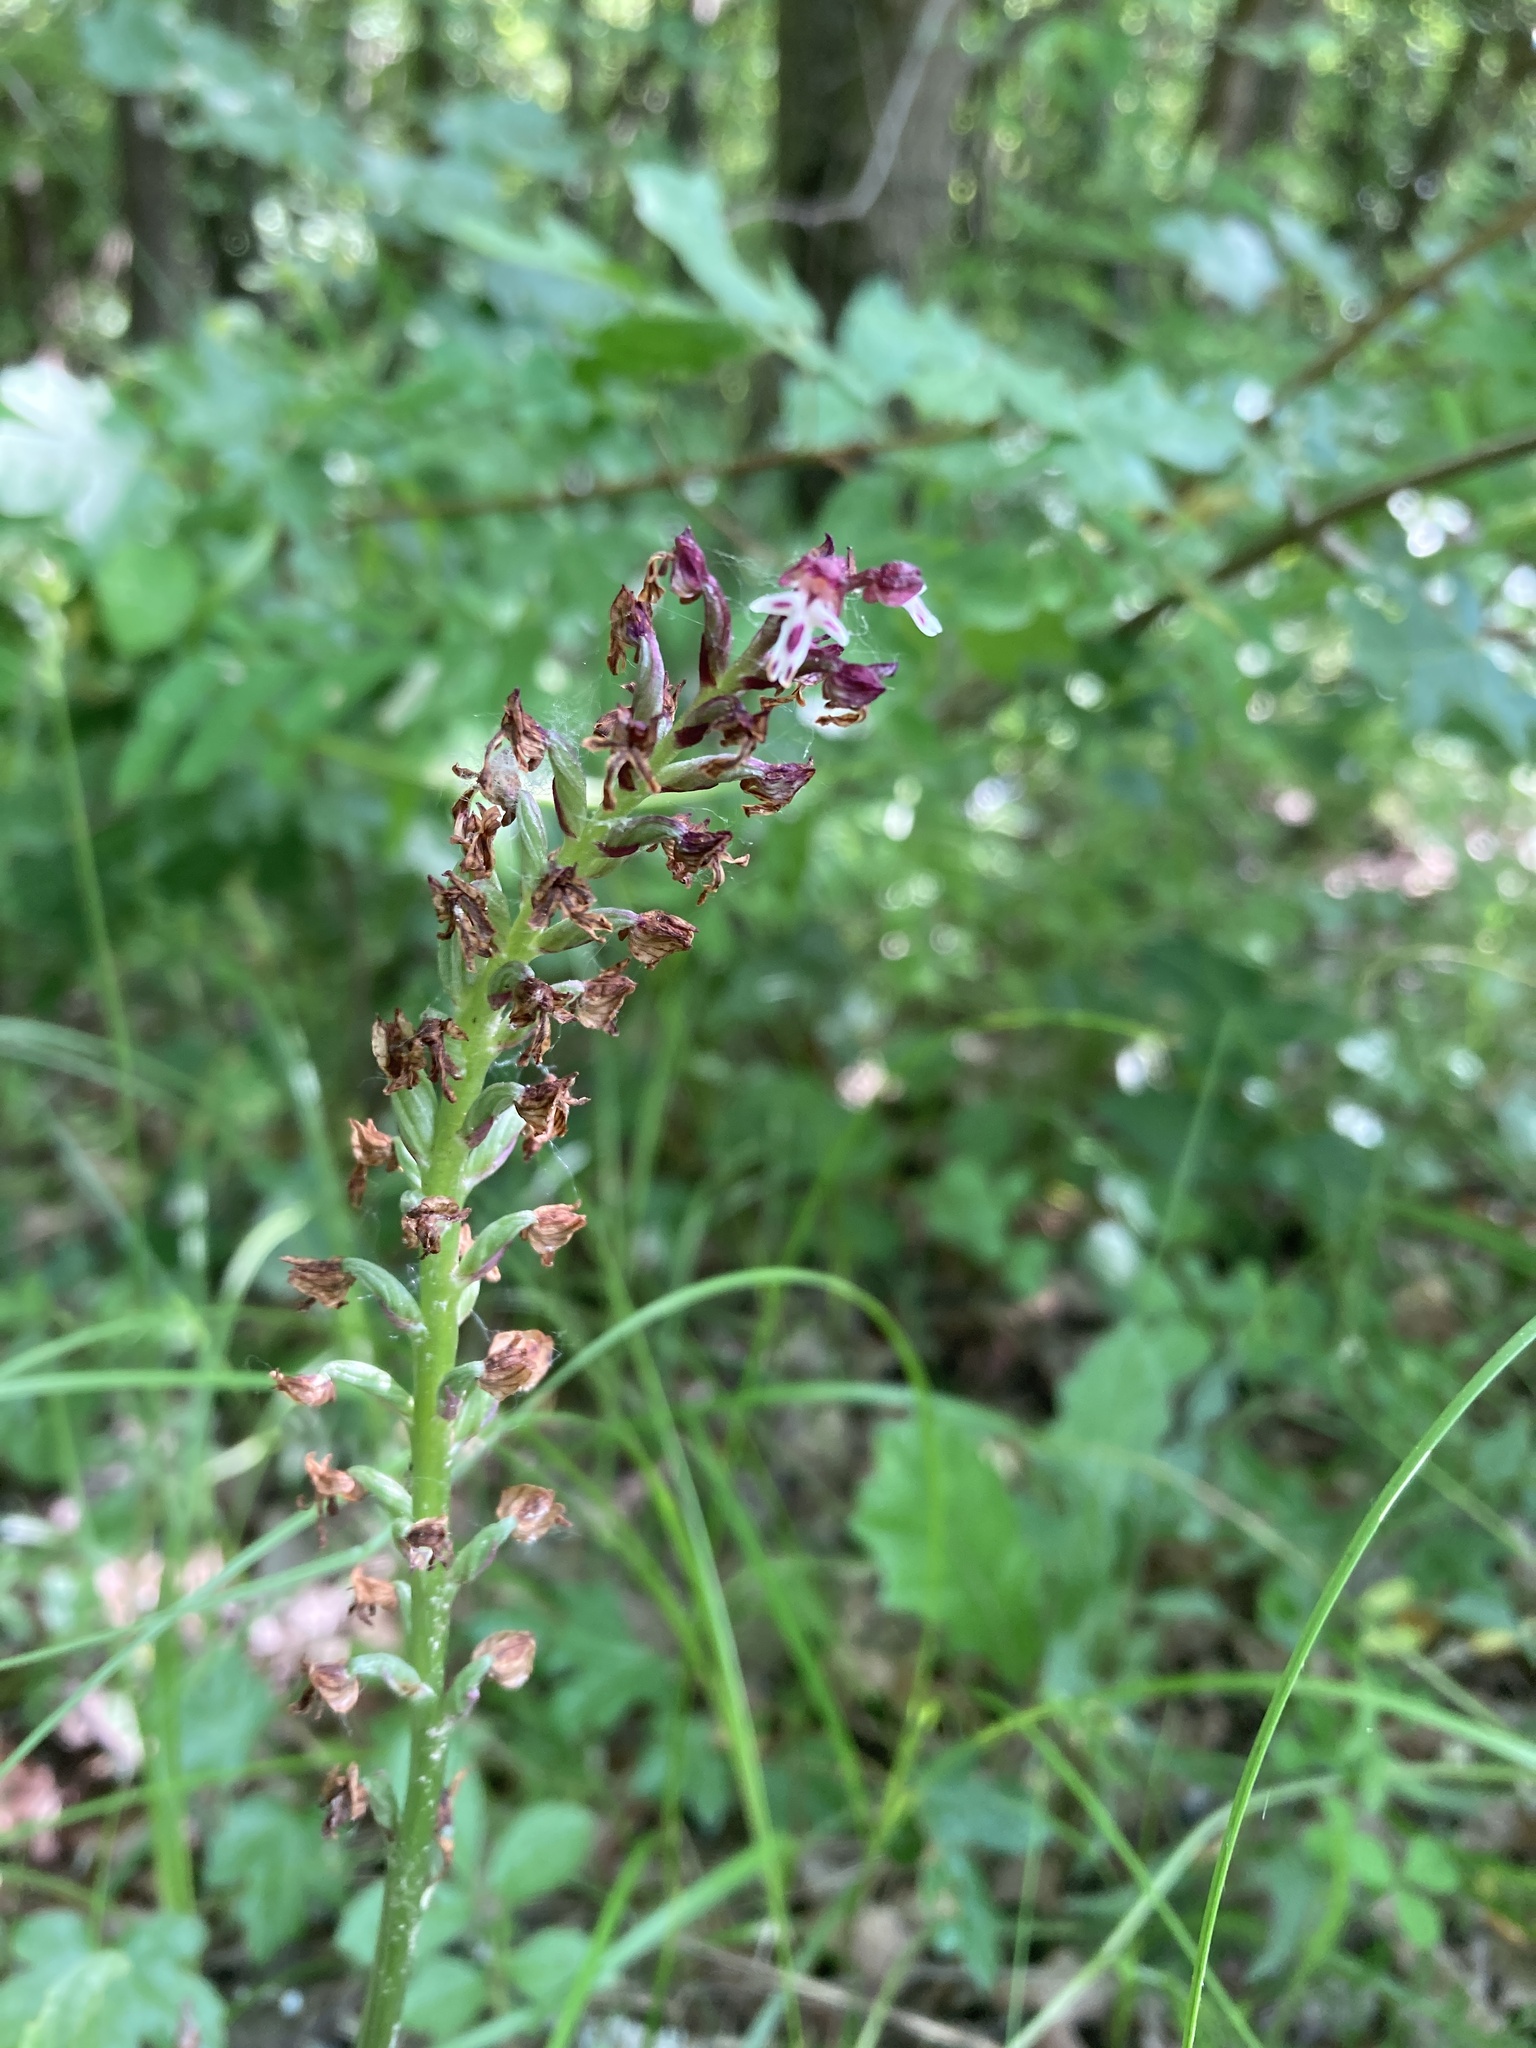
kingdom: Plantae
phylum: Tracheophyta
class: Liliopsida
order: Asparagales
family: Orchidaceae
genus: Neotinea
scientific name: Neotinea ustulata
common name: Burnt orchid
